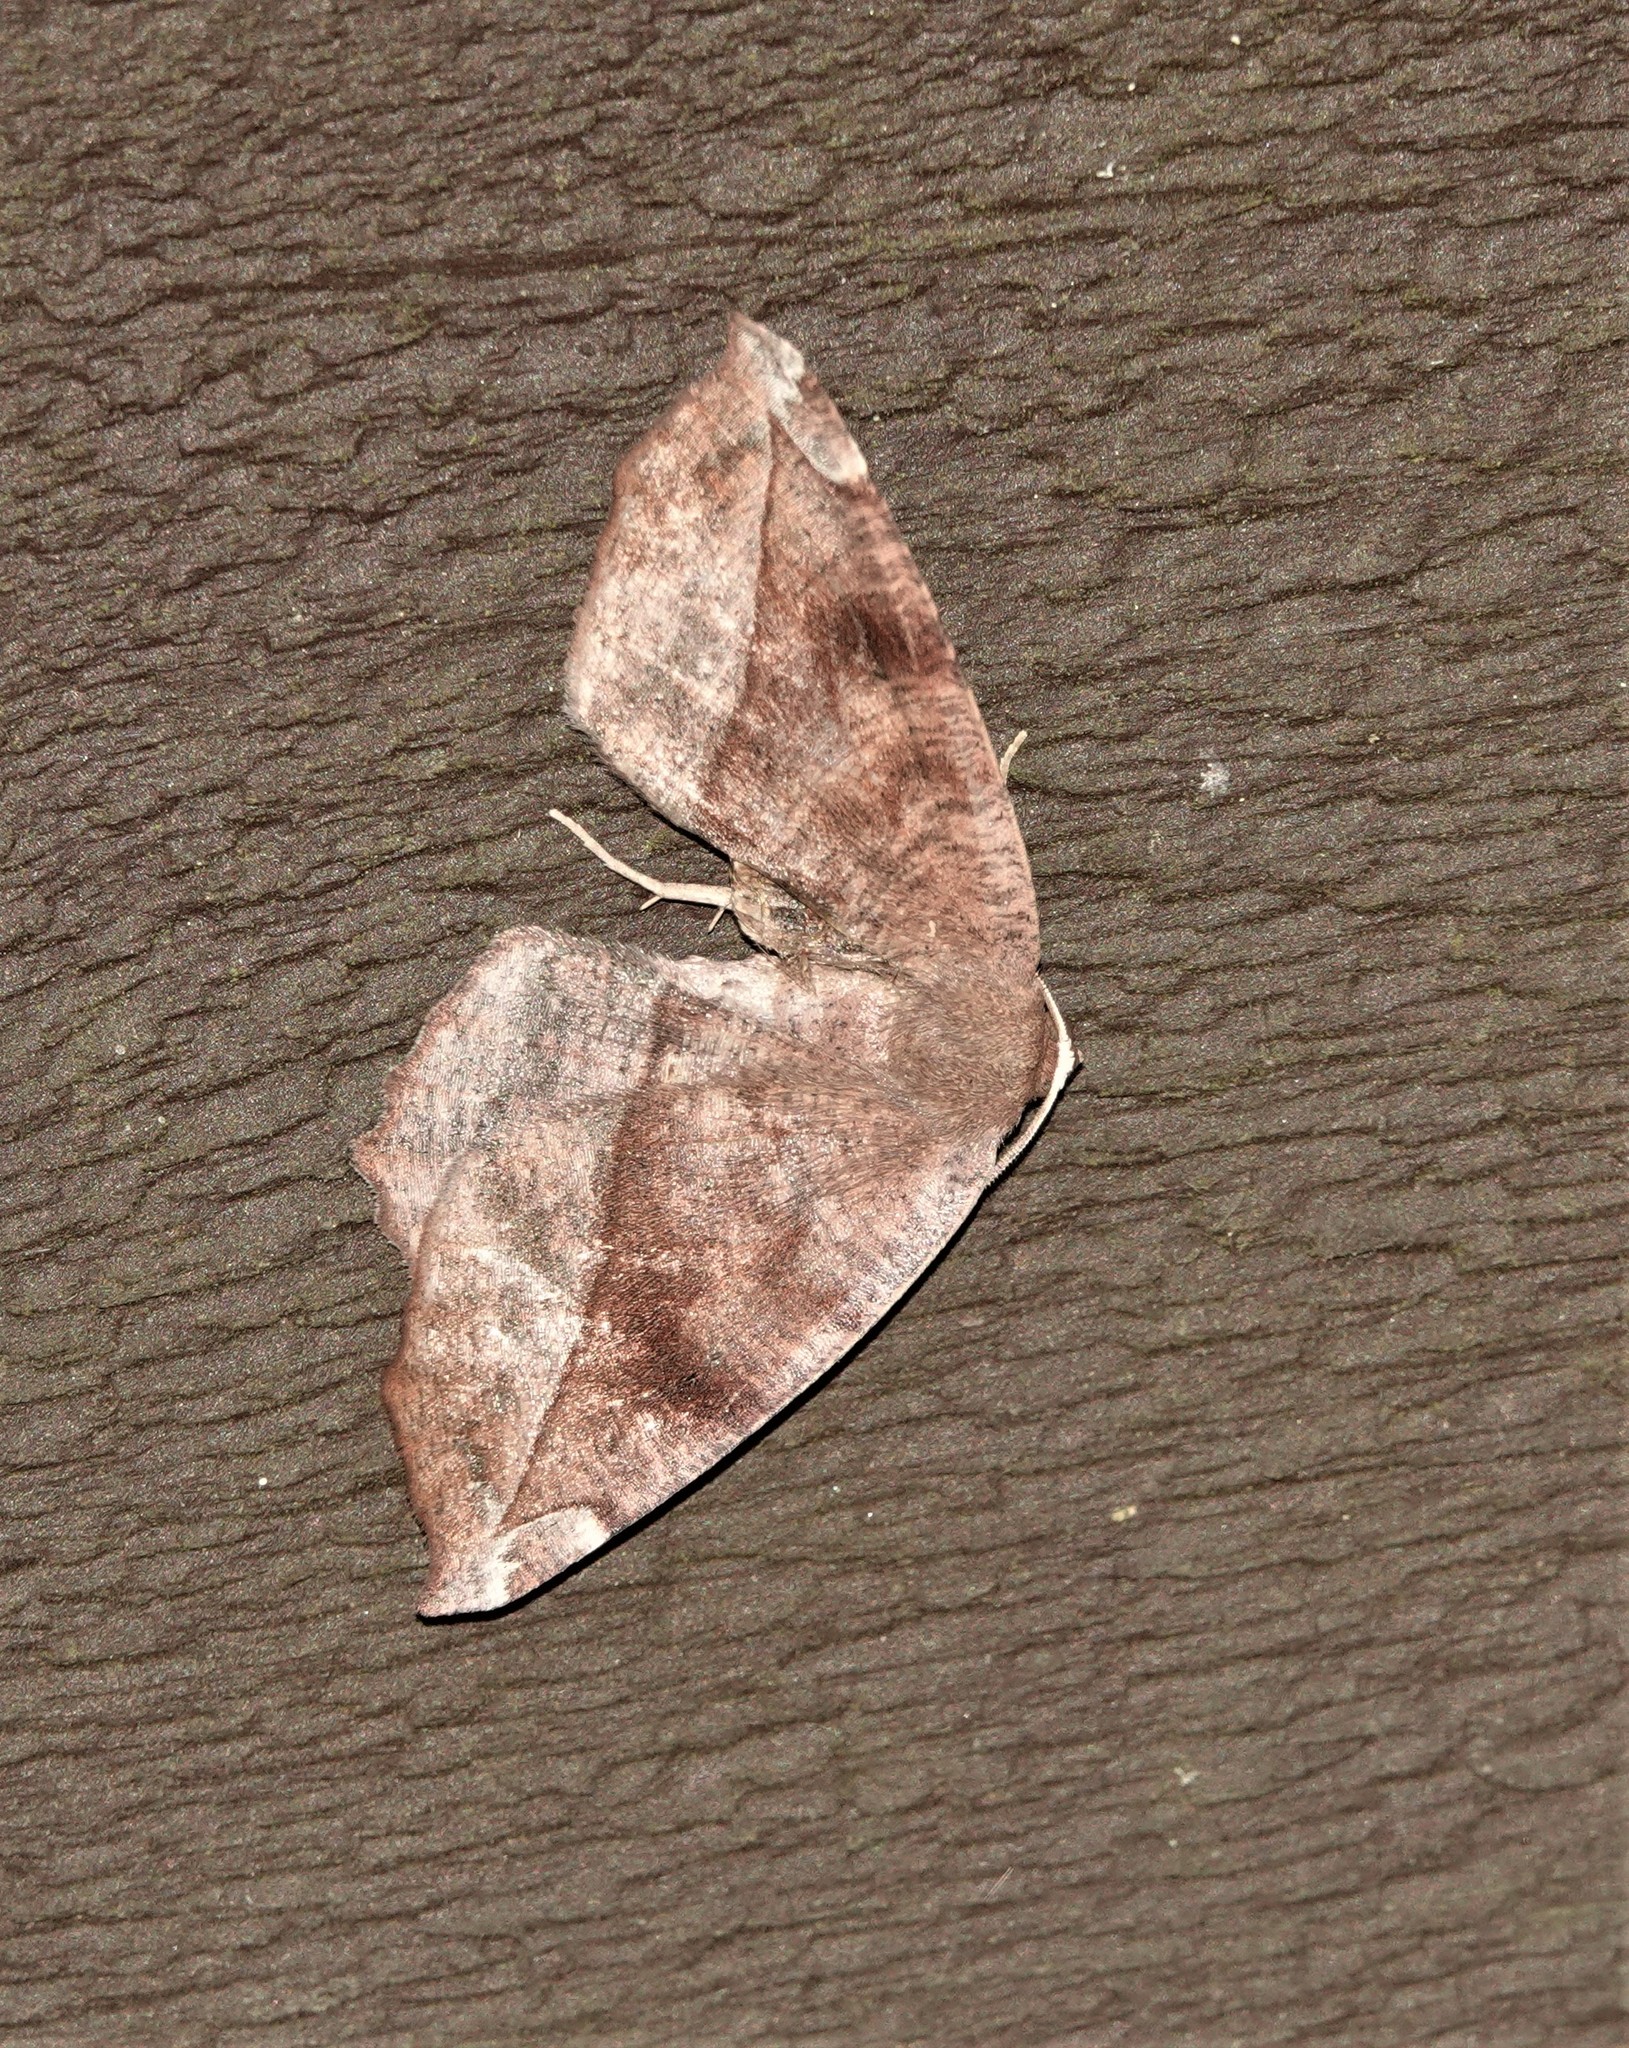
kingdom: Animalia
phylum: Arthropoda
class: Insecta
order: Lepidoptera
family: Geometridae
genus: Eutrapela
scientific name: Eutrapela clemataria
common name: Curved-toothed geometer
